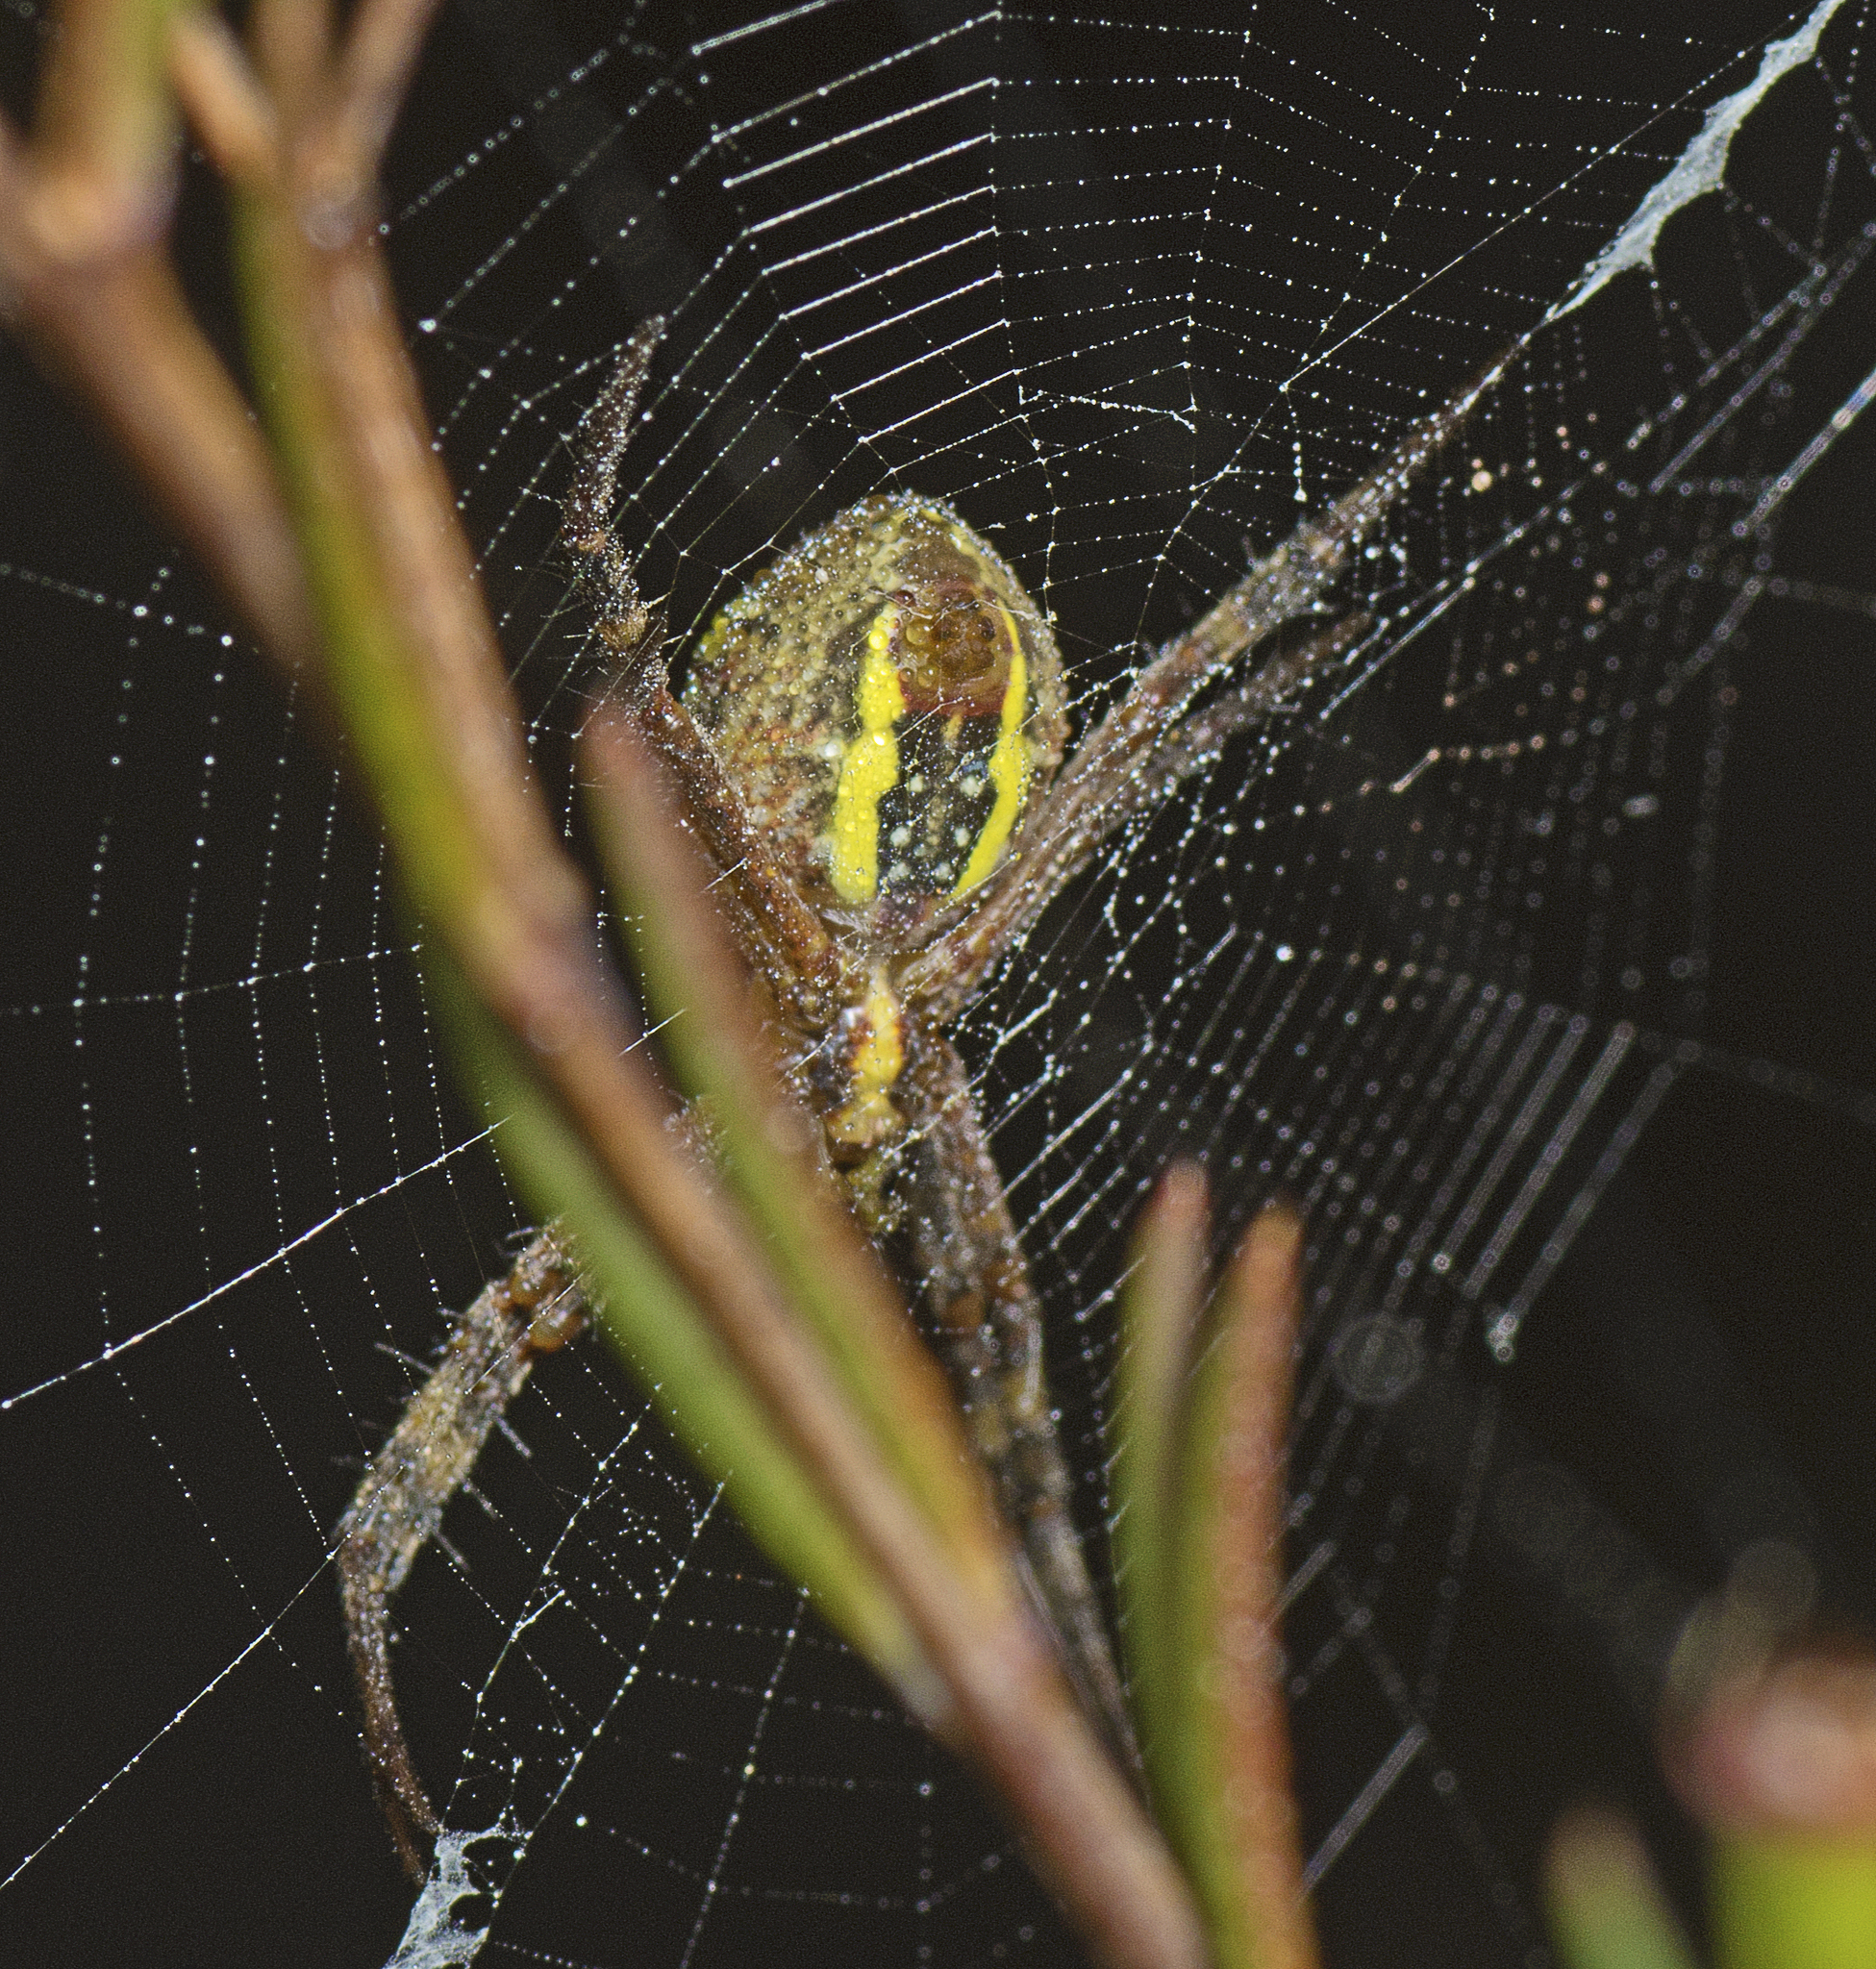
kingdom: Animalia
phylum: Arthropoda
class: Arachnida
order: Araneae
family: Araneidae
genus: Argiope
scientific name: Argiope keyserlingi
